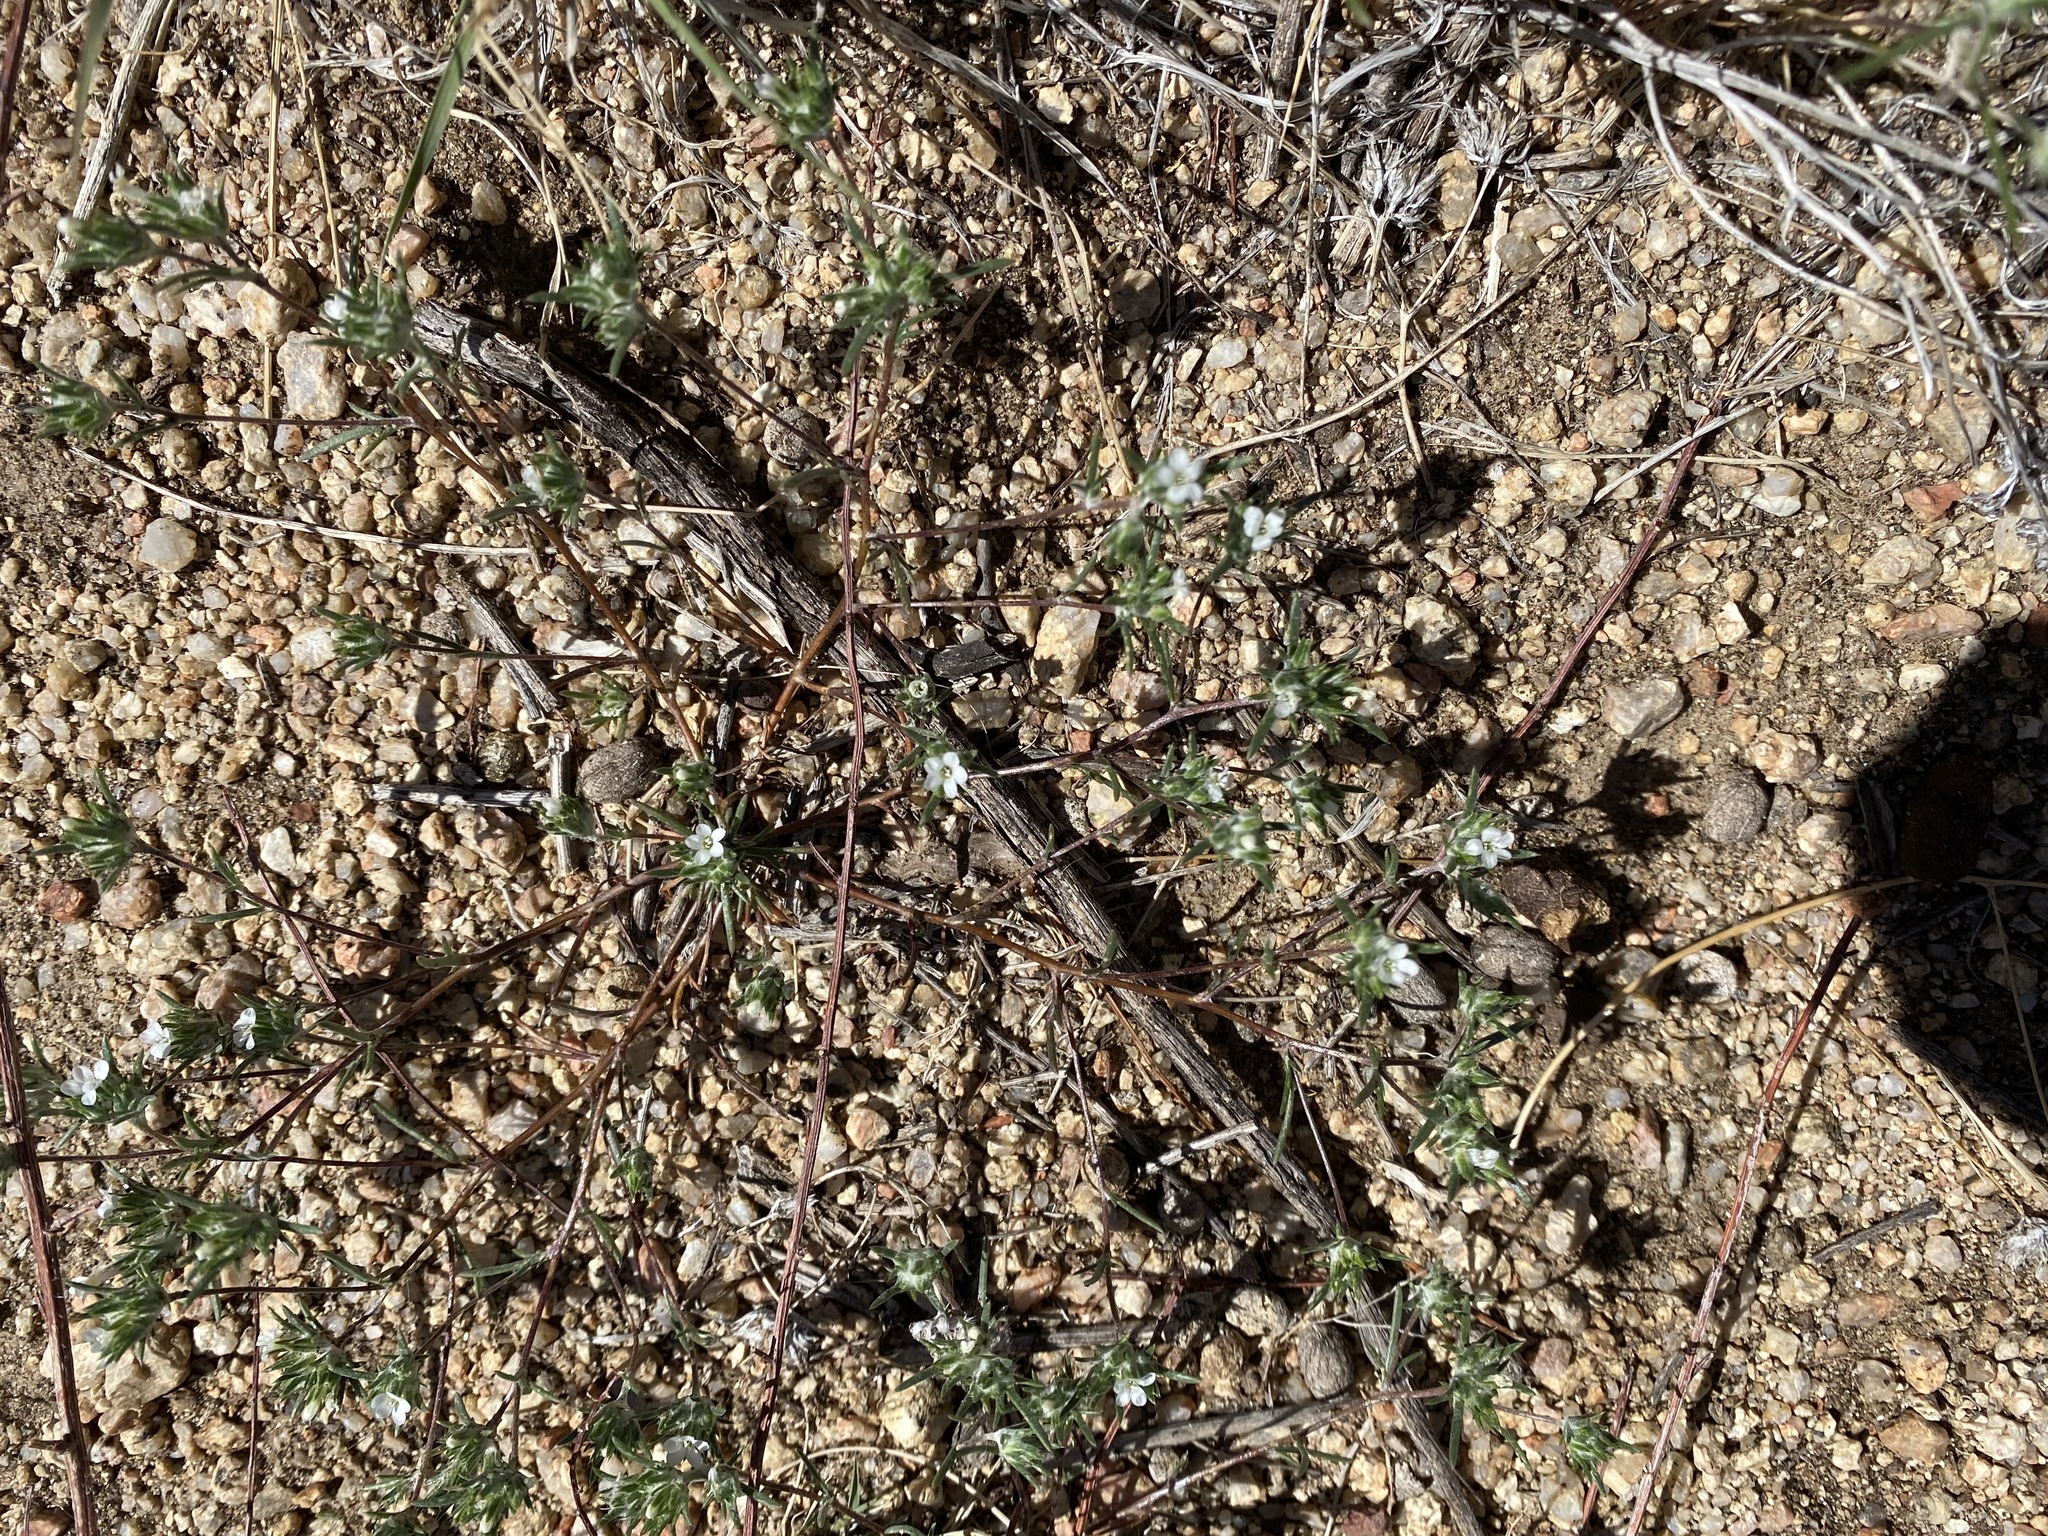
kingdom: Plantae
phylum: Tracheophyta
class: Magnoliopsida
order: Ericales
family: Polemoniaceae
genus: Eriastrum
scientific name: Eriastrum diffusum
